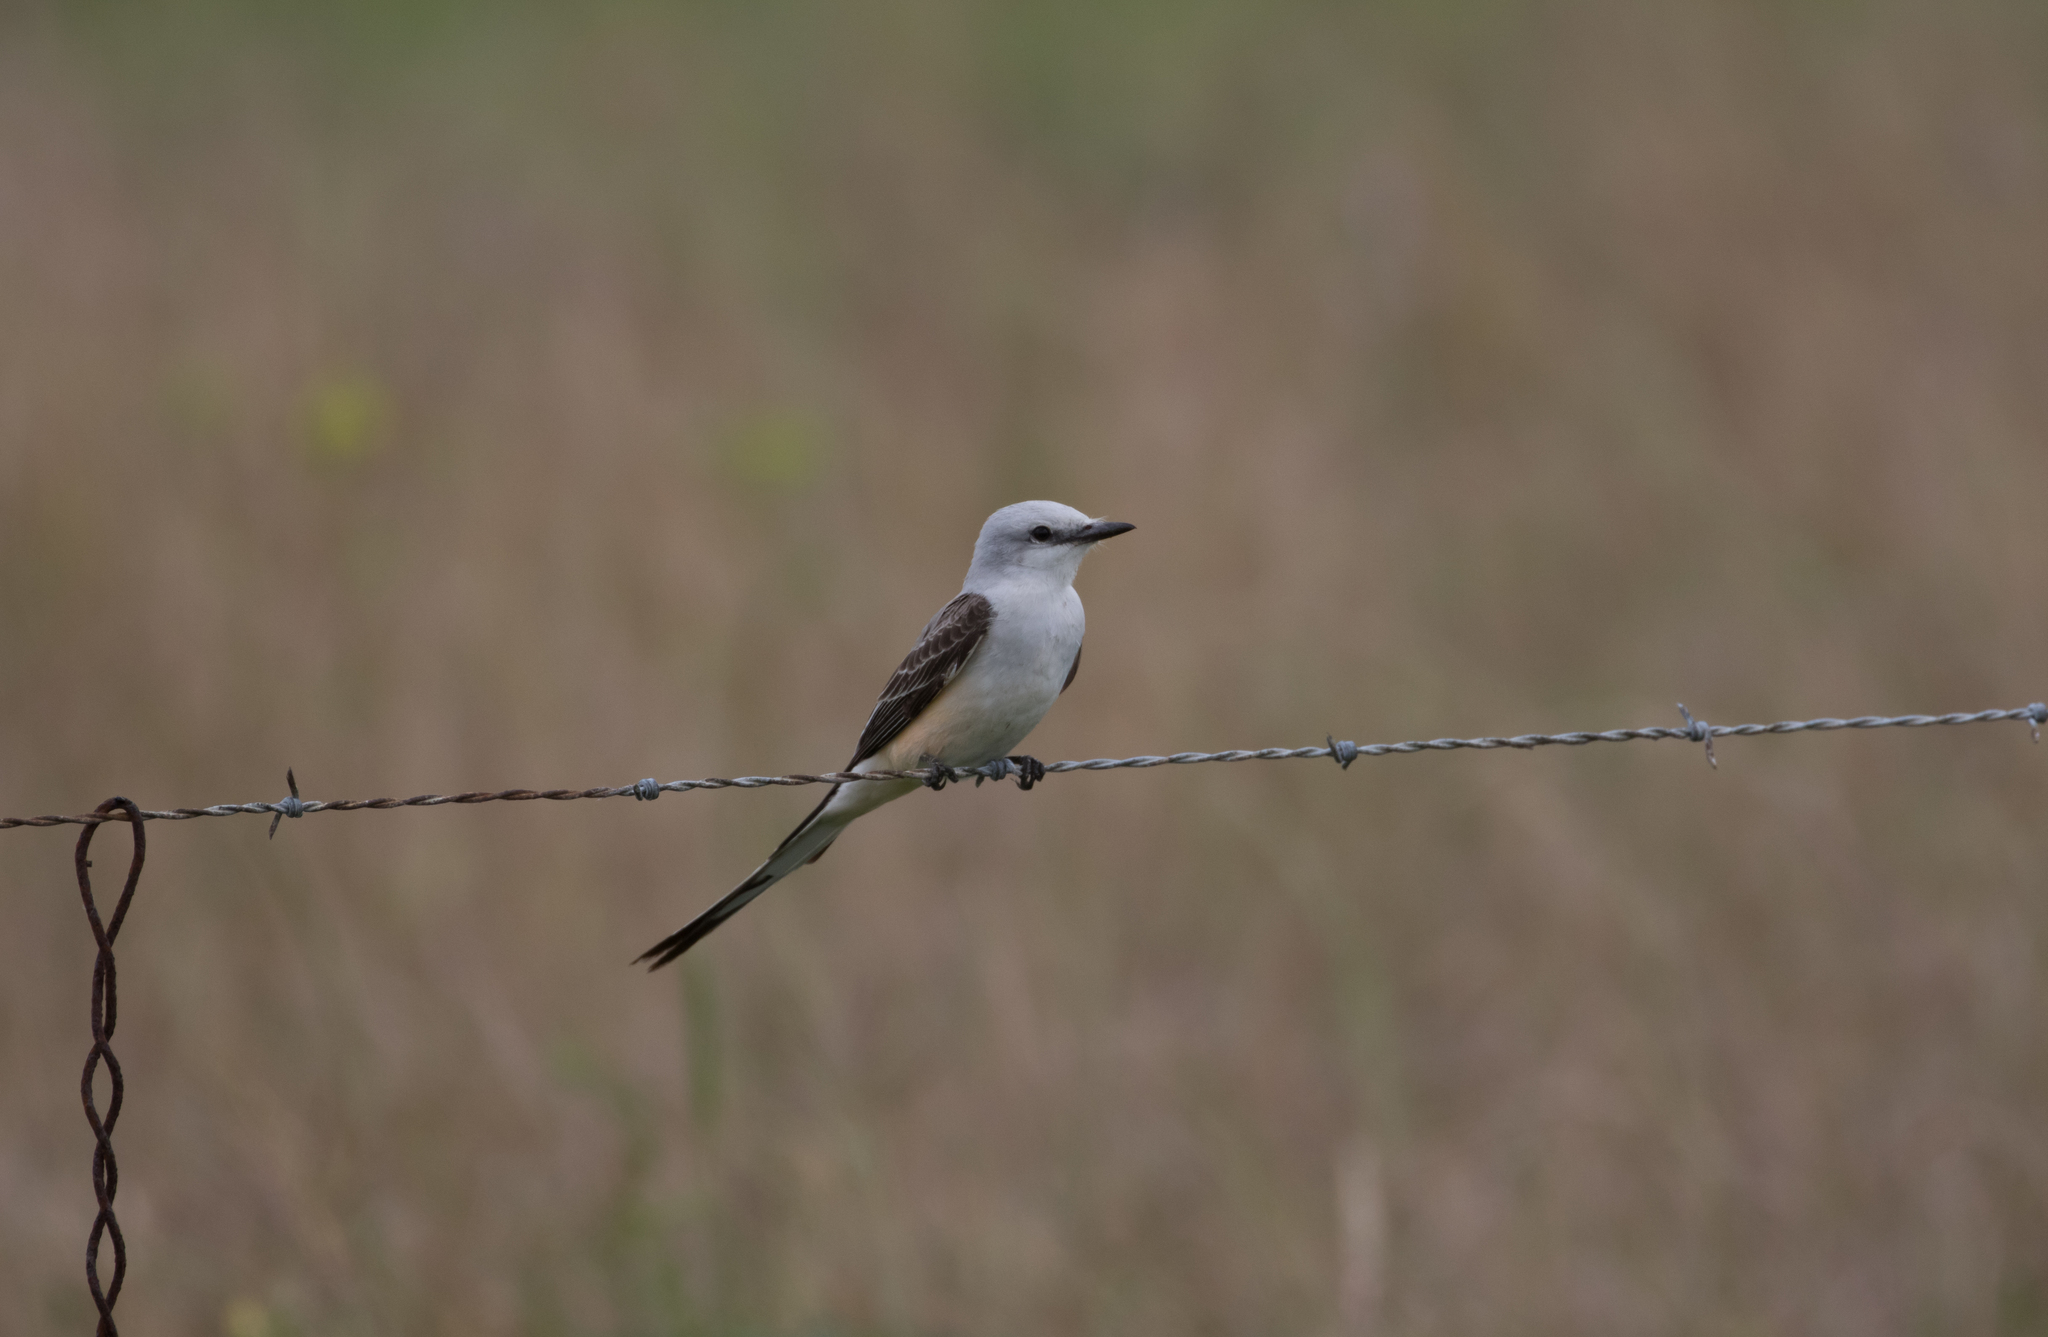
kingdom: Animalia
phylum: Chordata
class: Aves
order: Passeriformes
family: Tyrannidae
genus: Tyrannus
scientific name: Tyrannus forficatus
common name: Scissor-tailed flycatcher
